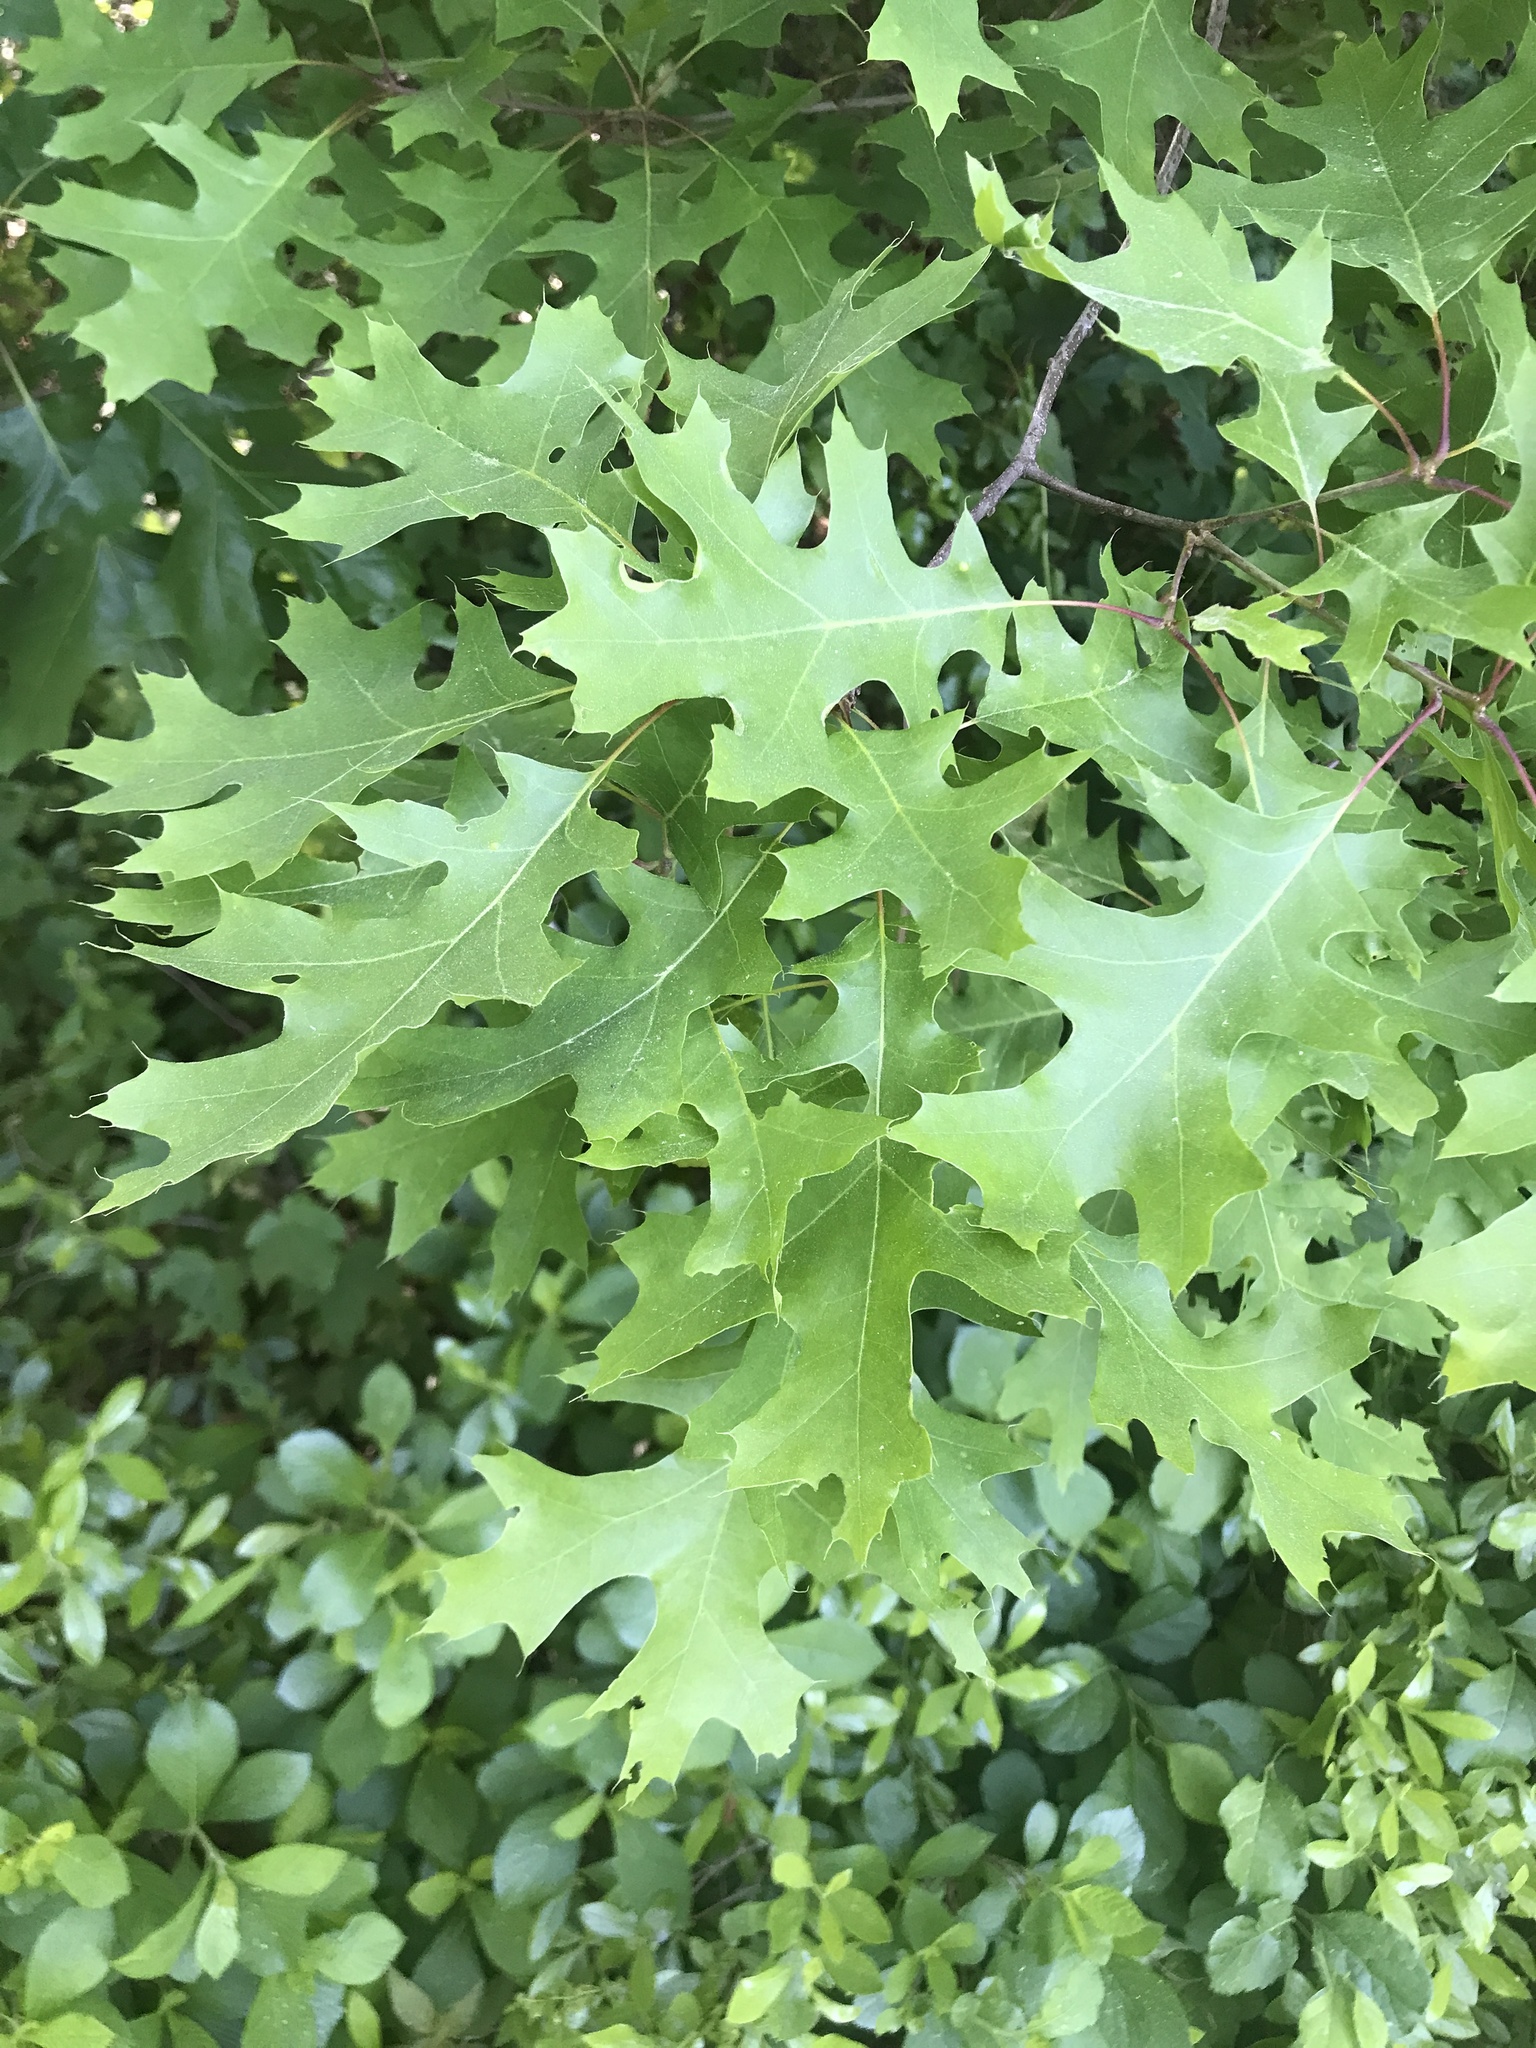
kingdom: Plantae
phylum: Tracheophyta
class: Magnoliopsida
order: Fagales
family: Fagaceae
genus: Quercus
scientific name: Quercus coccinea
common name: Scarlet oak
